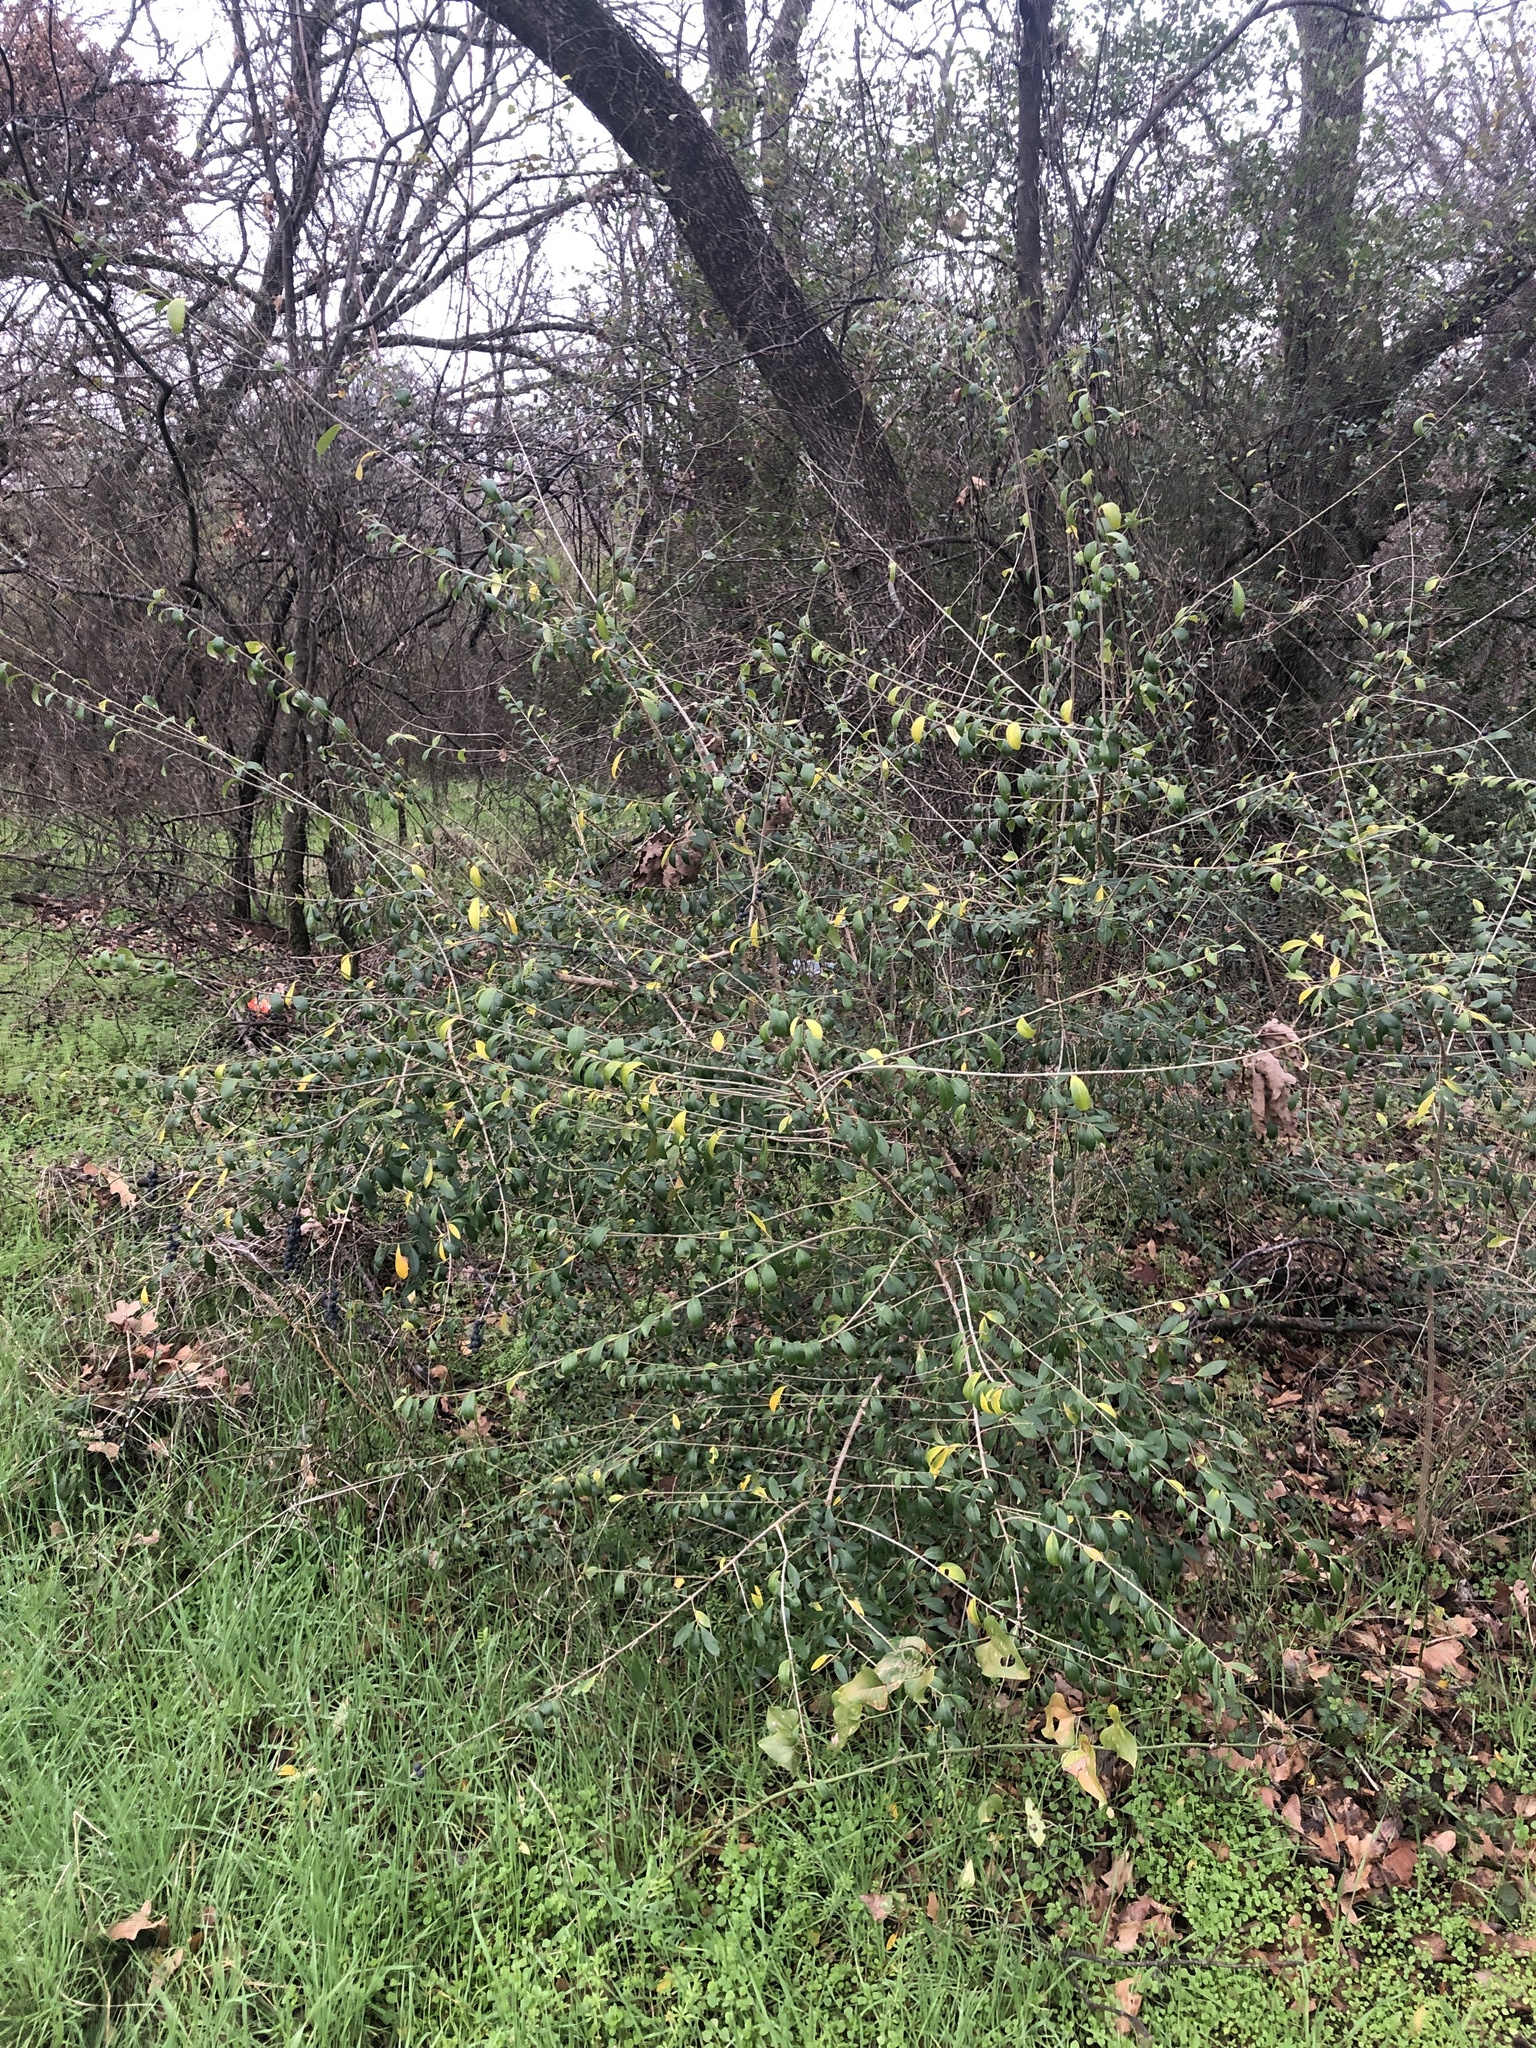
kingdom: Plantae
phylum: Tracheophyta
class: Magnoliopsida
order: Lamiales
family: Oleaceae
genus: Ligustrum
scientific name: Ligustrum quihoui
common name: Waxyleaf privet
